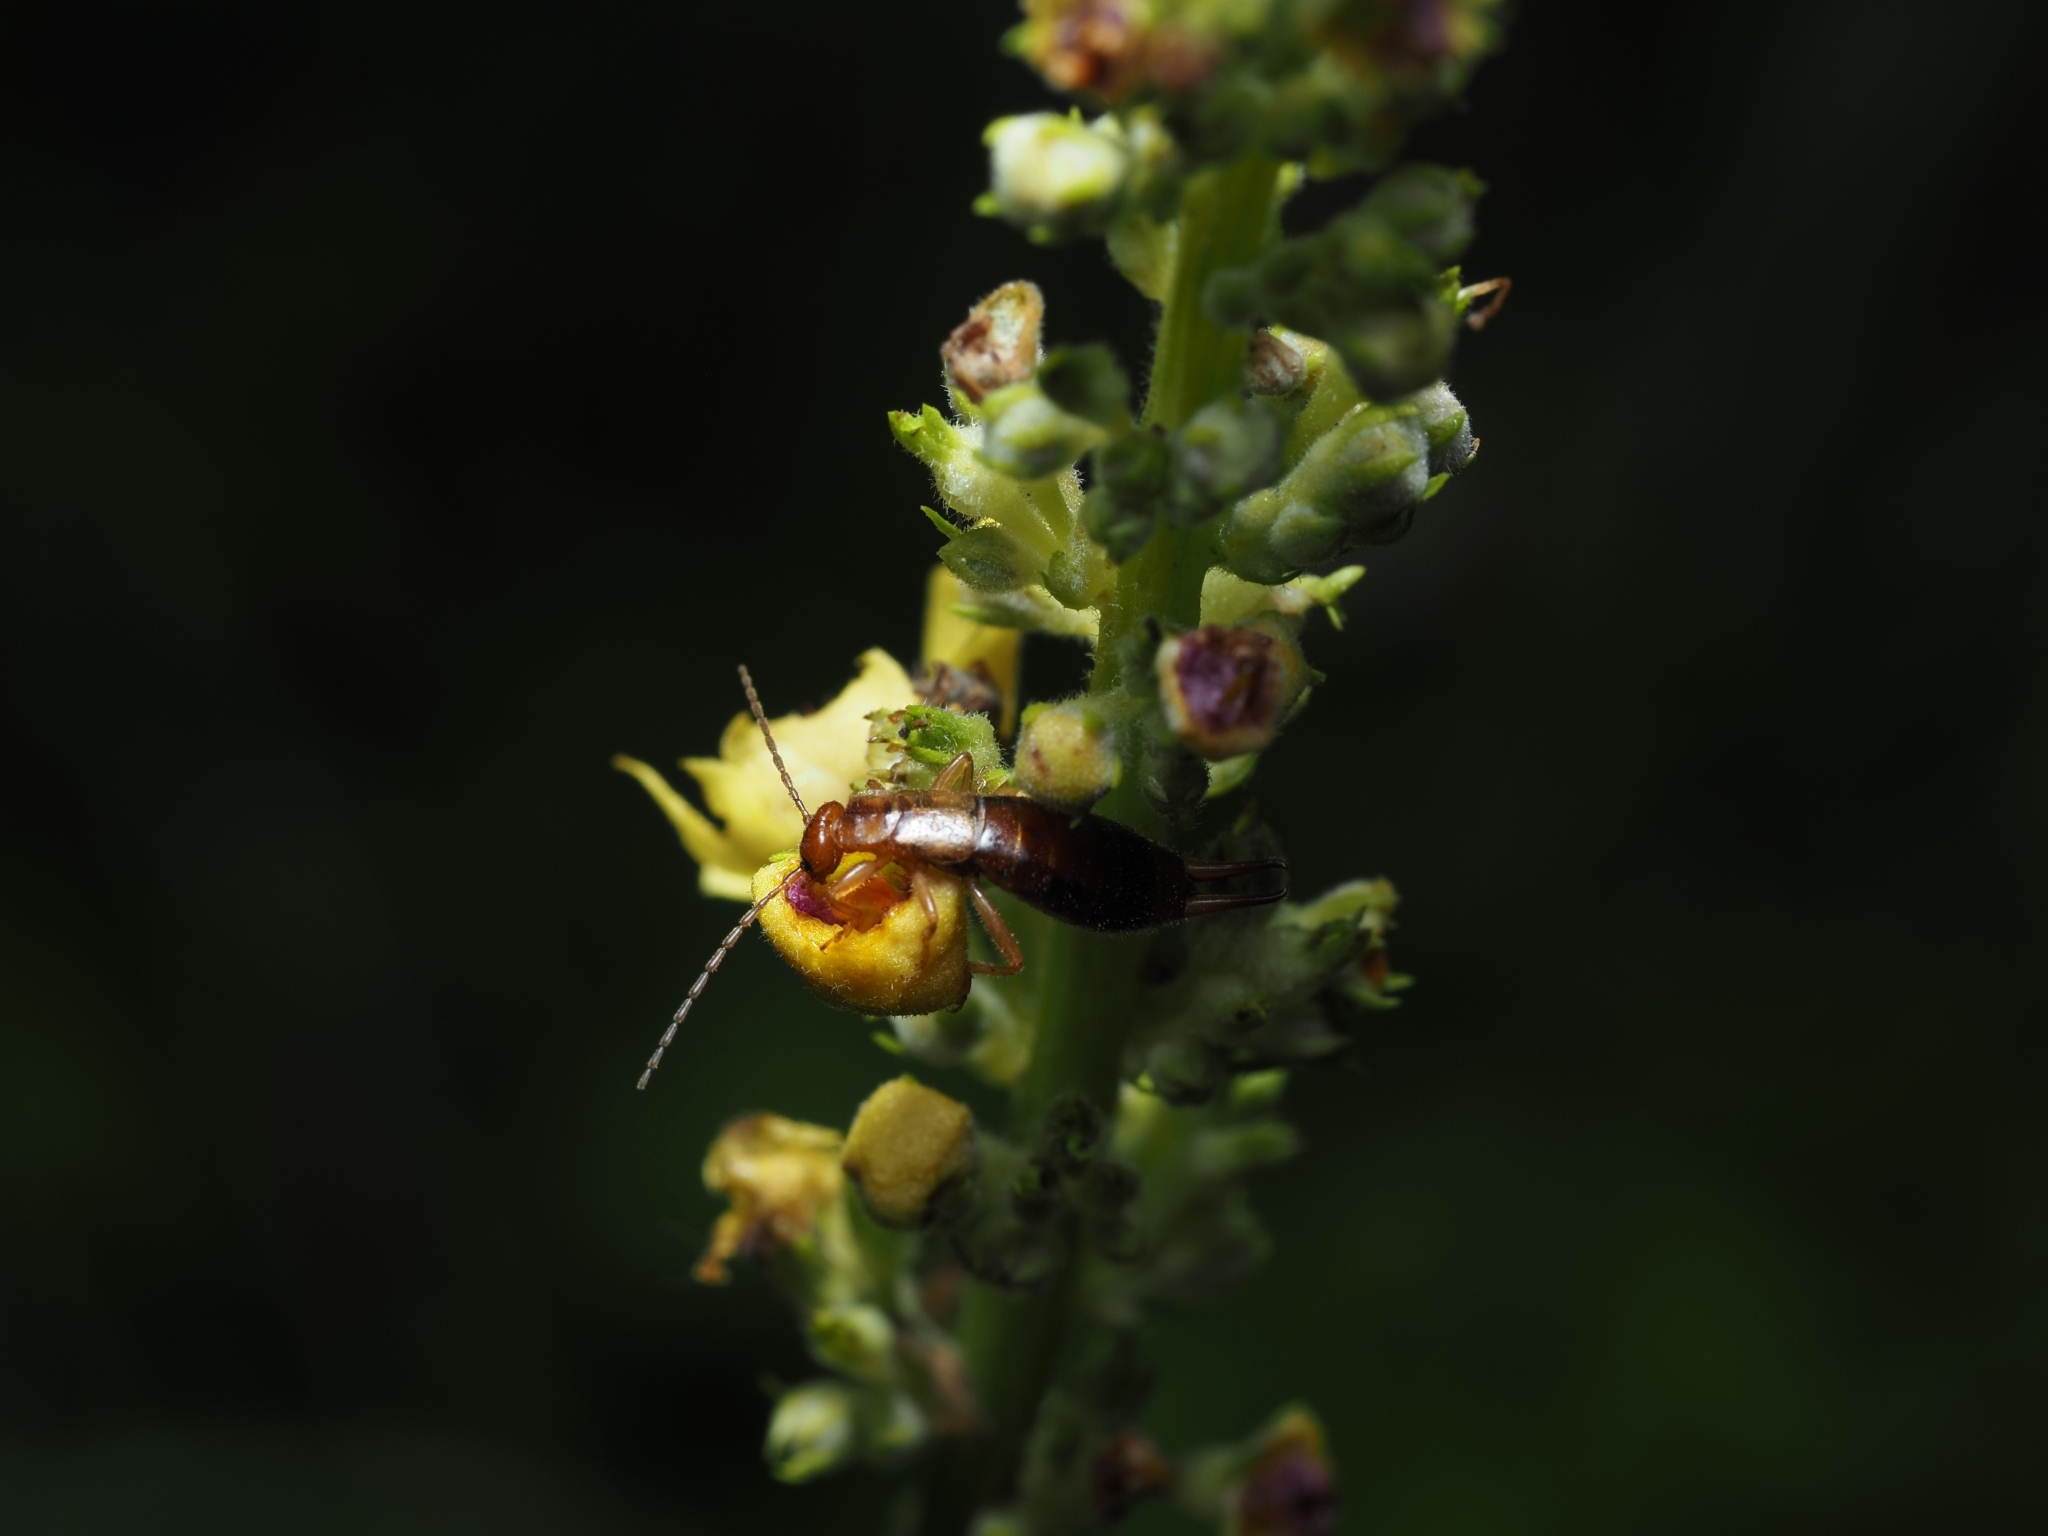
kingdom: Animalia
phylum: Arthropoda
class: Insecta
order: Dermaptera
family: Forficulidae
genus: Apterygida
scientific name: Apterygida albipennis
